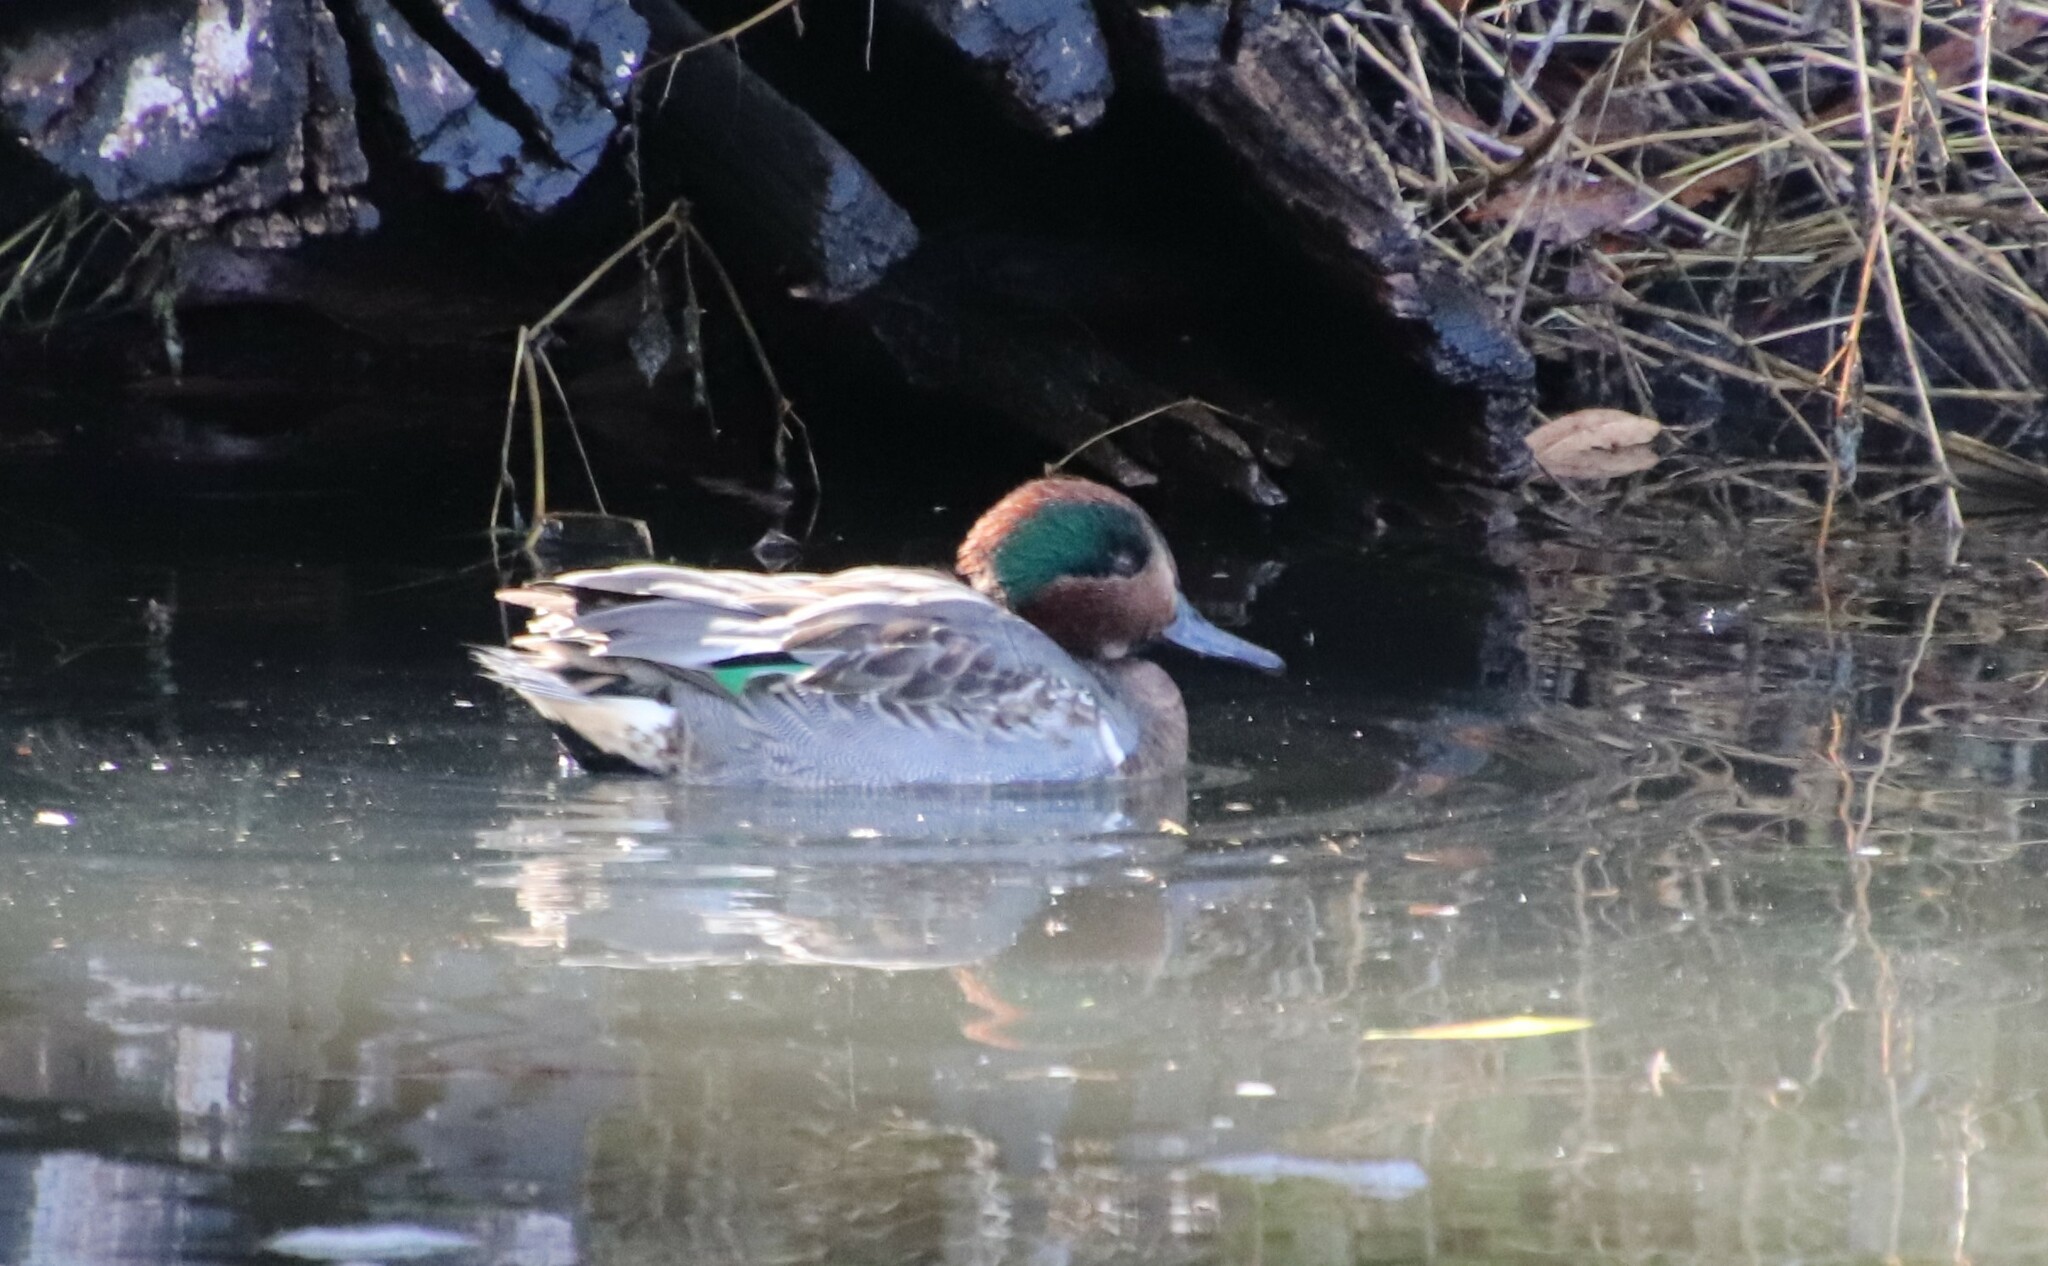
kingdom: Animalia
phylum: Chordata
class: Aves
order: Anseriformes
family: Anatidae
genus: Anas
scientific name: Anas crecca
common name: Eurasian teal
